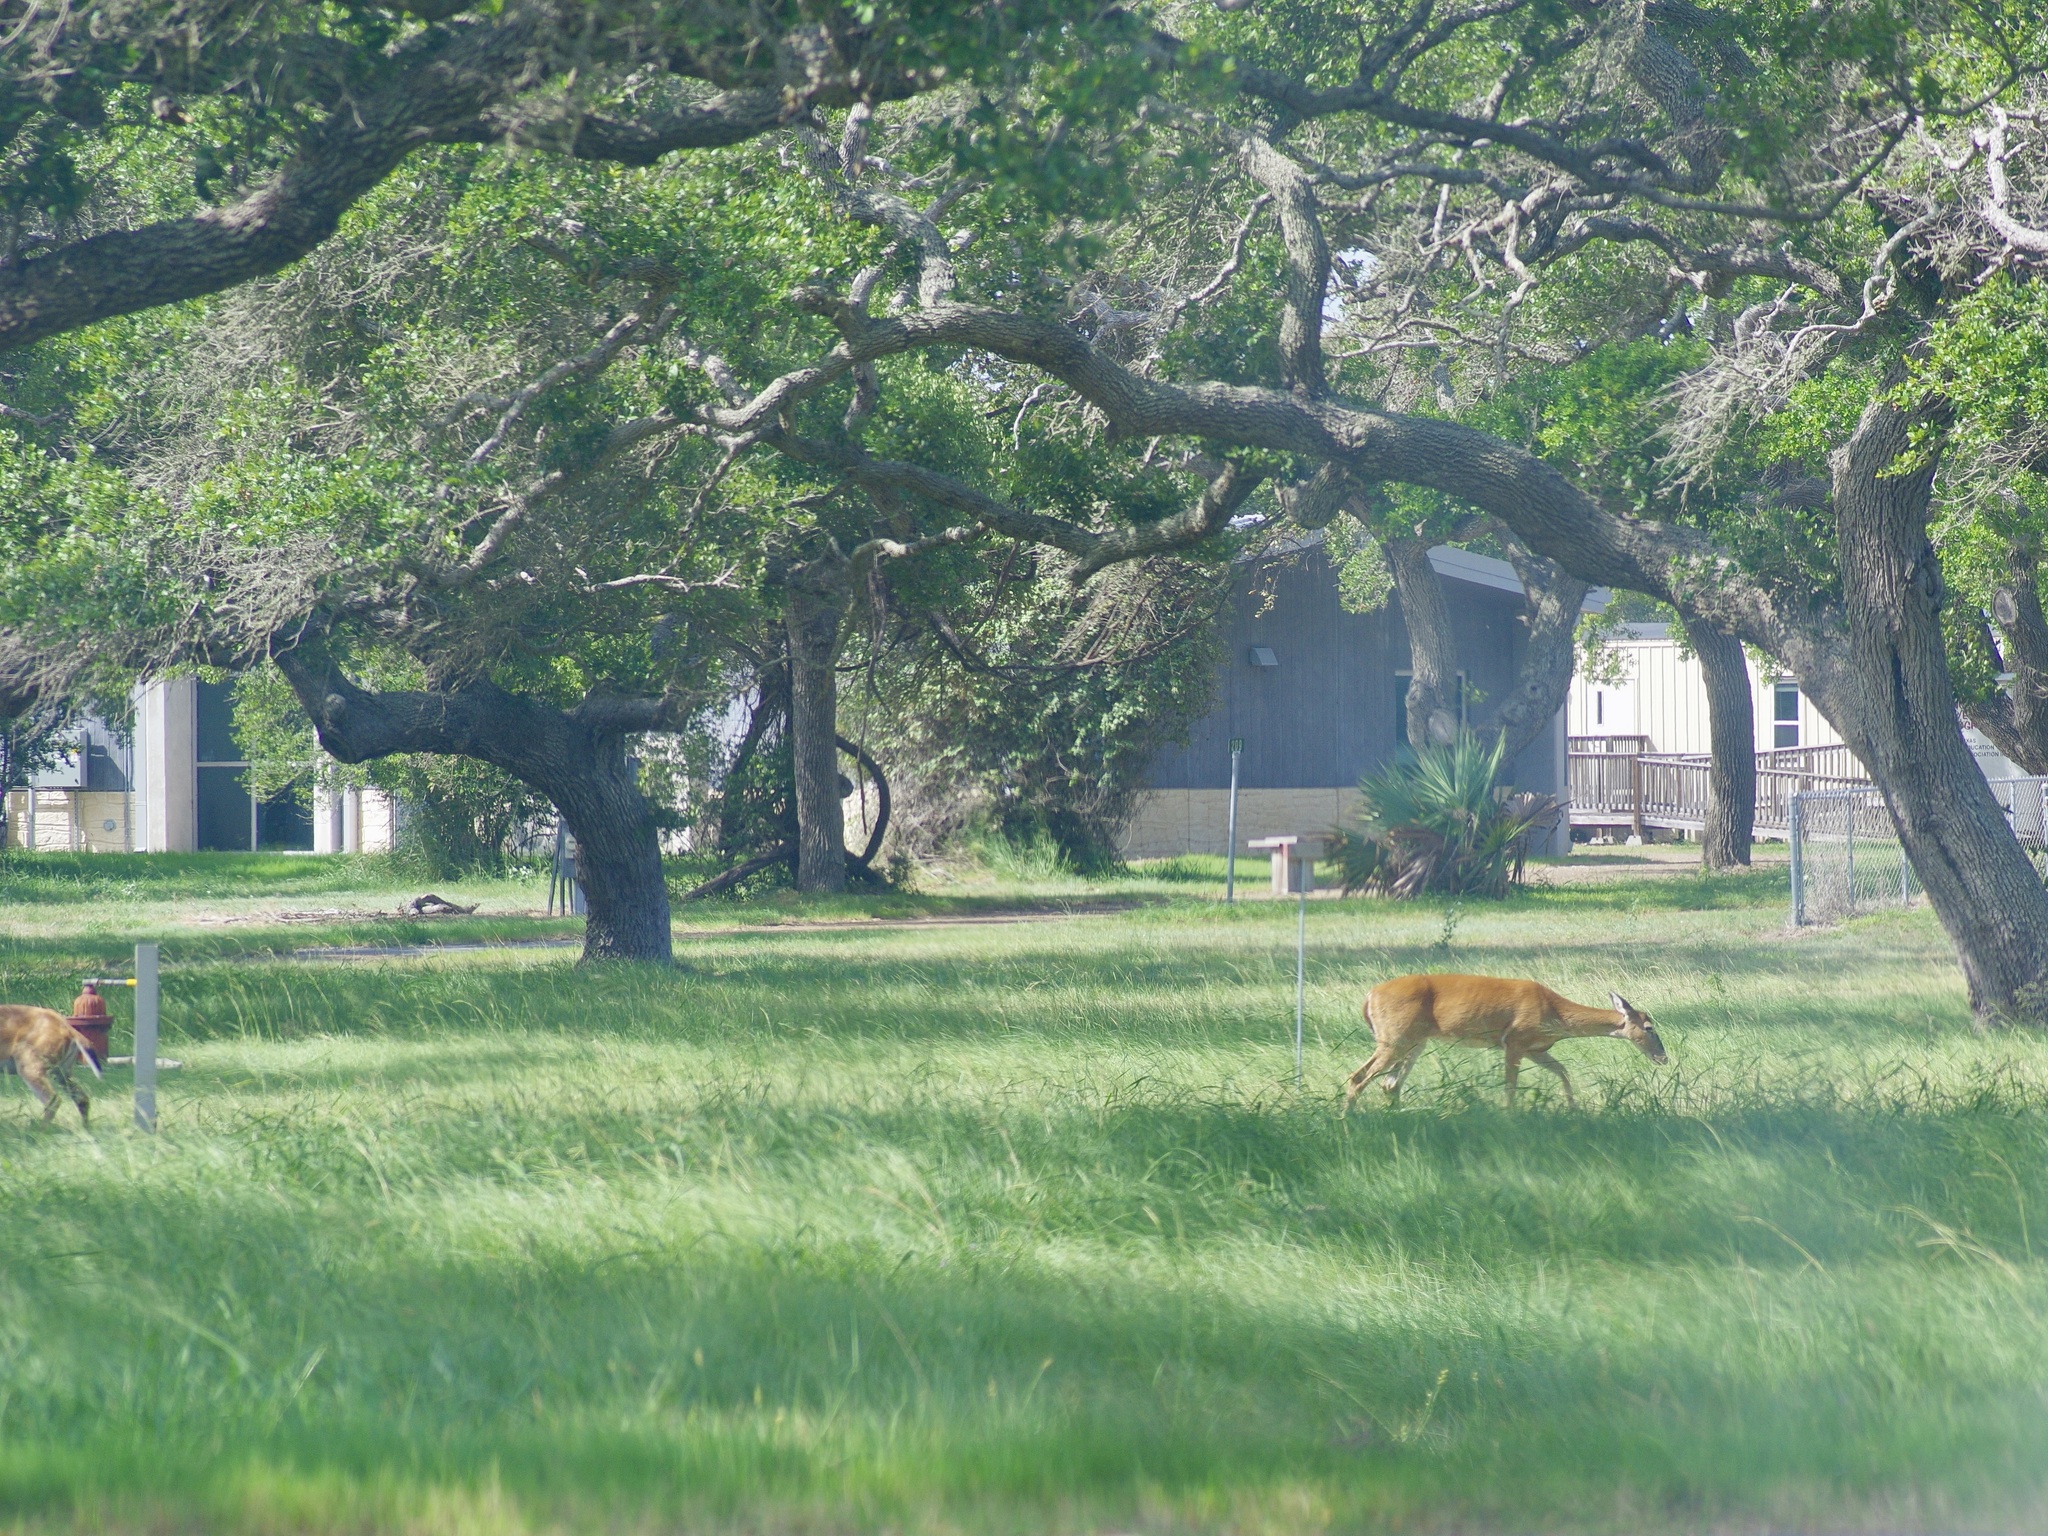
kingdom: Animalia
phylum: Chordata
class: Mammalia
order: Artiodactyla
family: Cervidae
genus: Odocoileus
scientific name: Odocoileus virginianus
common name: White-tailed deer
